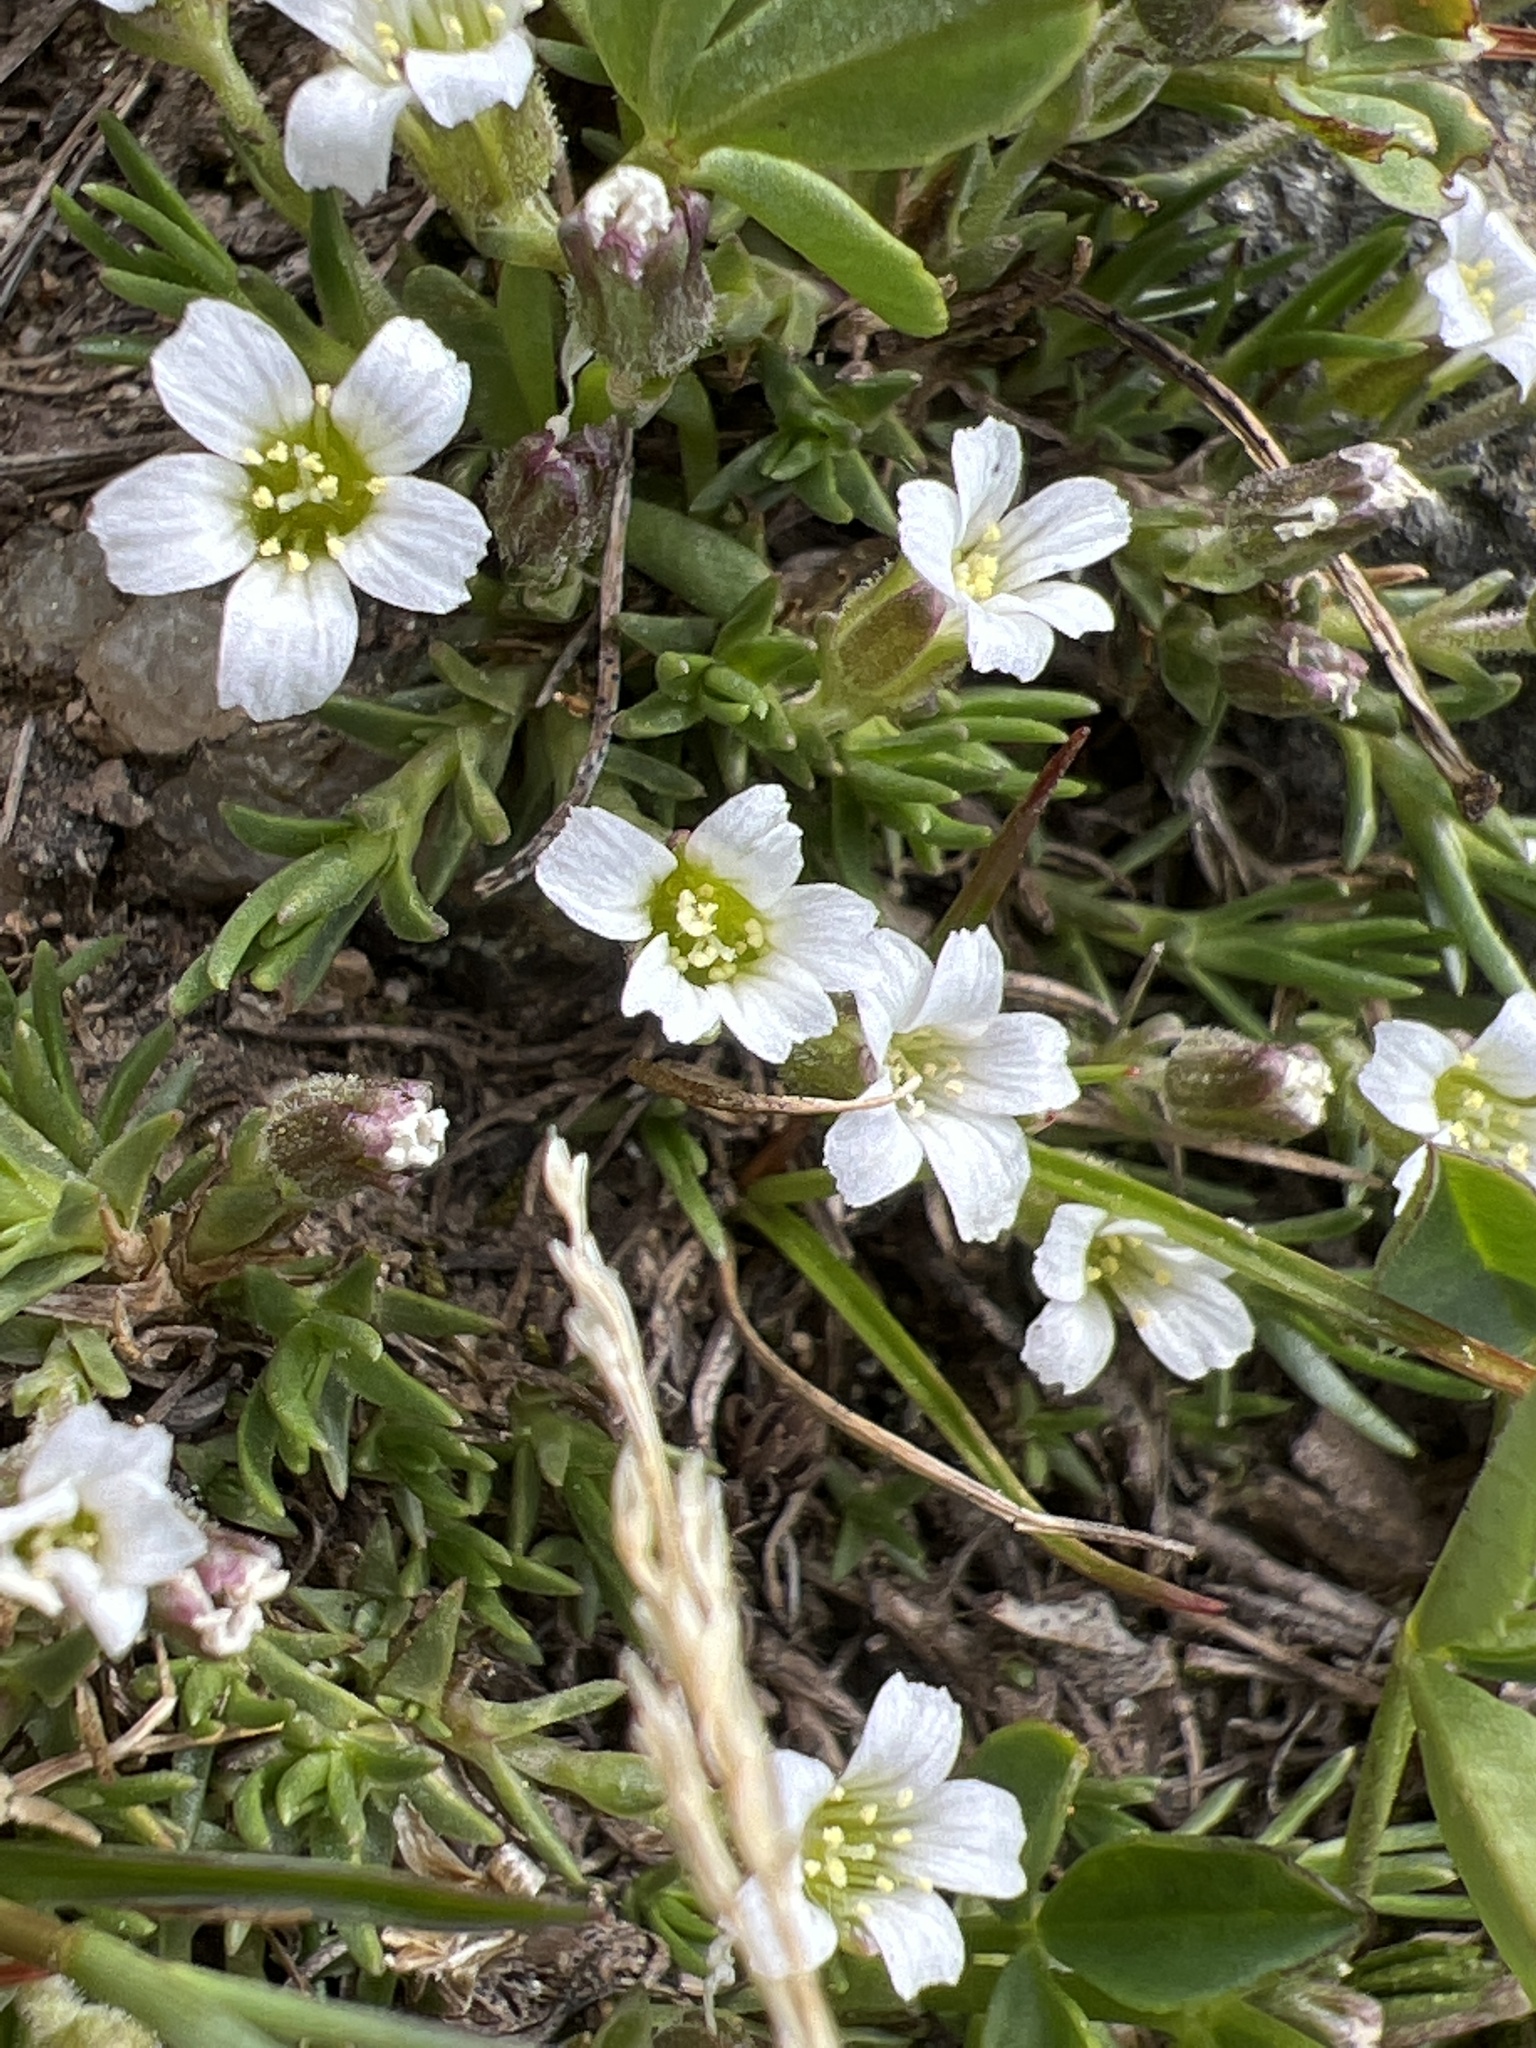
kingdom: Plantae
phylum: Tracheophyta
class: Magnoliopsida
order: Caryophyllales
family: Caryophyllaceae
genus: Cherleria
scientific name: Cherleria obtusiloba
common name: Alpine stitchwort
